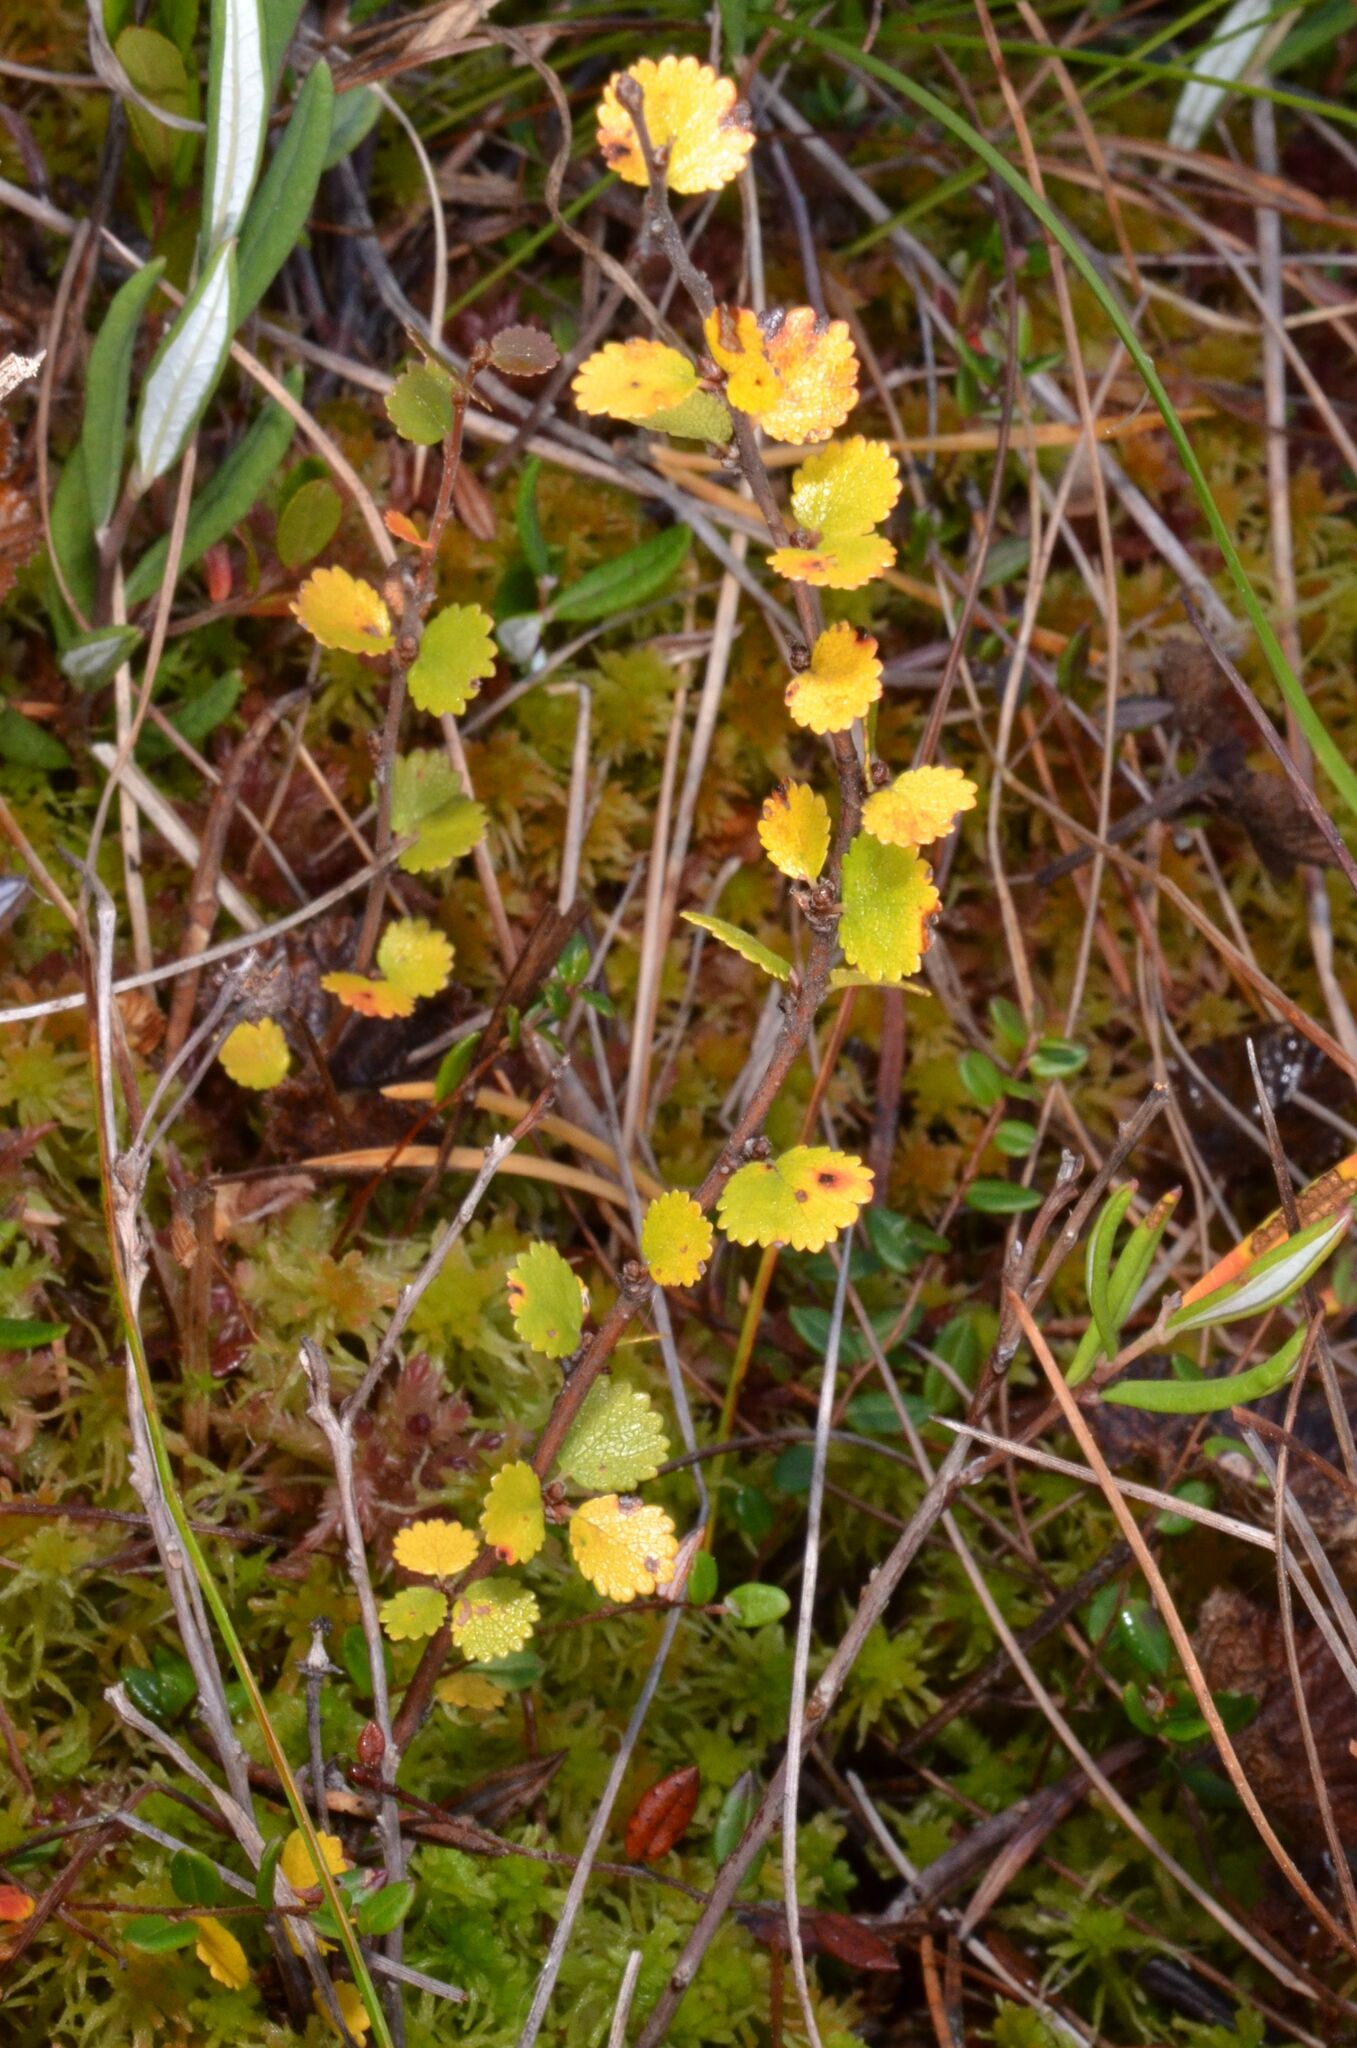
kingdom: Plantae
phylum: Tracheophyta
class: Magnoliopsida
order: Fagales
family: Betulaceae
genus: Betula
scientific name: Betula nana
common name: Arctic dwarf birch
